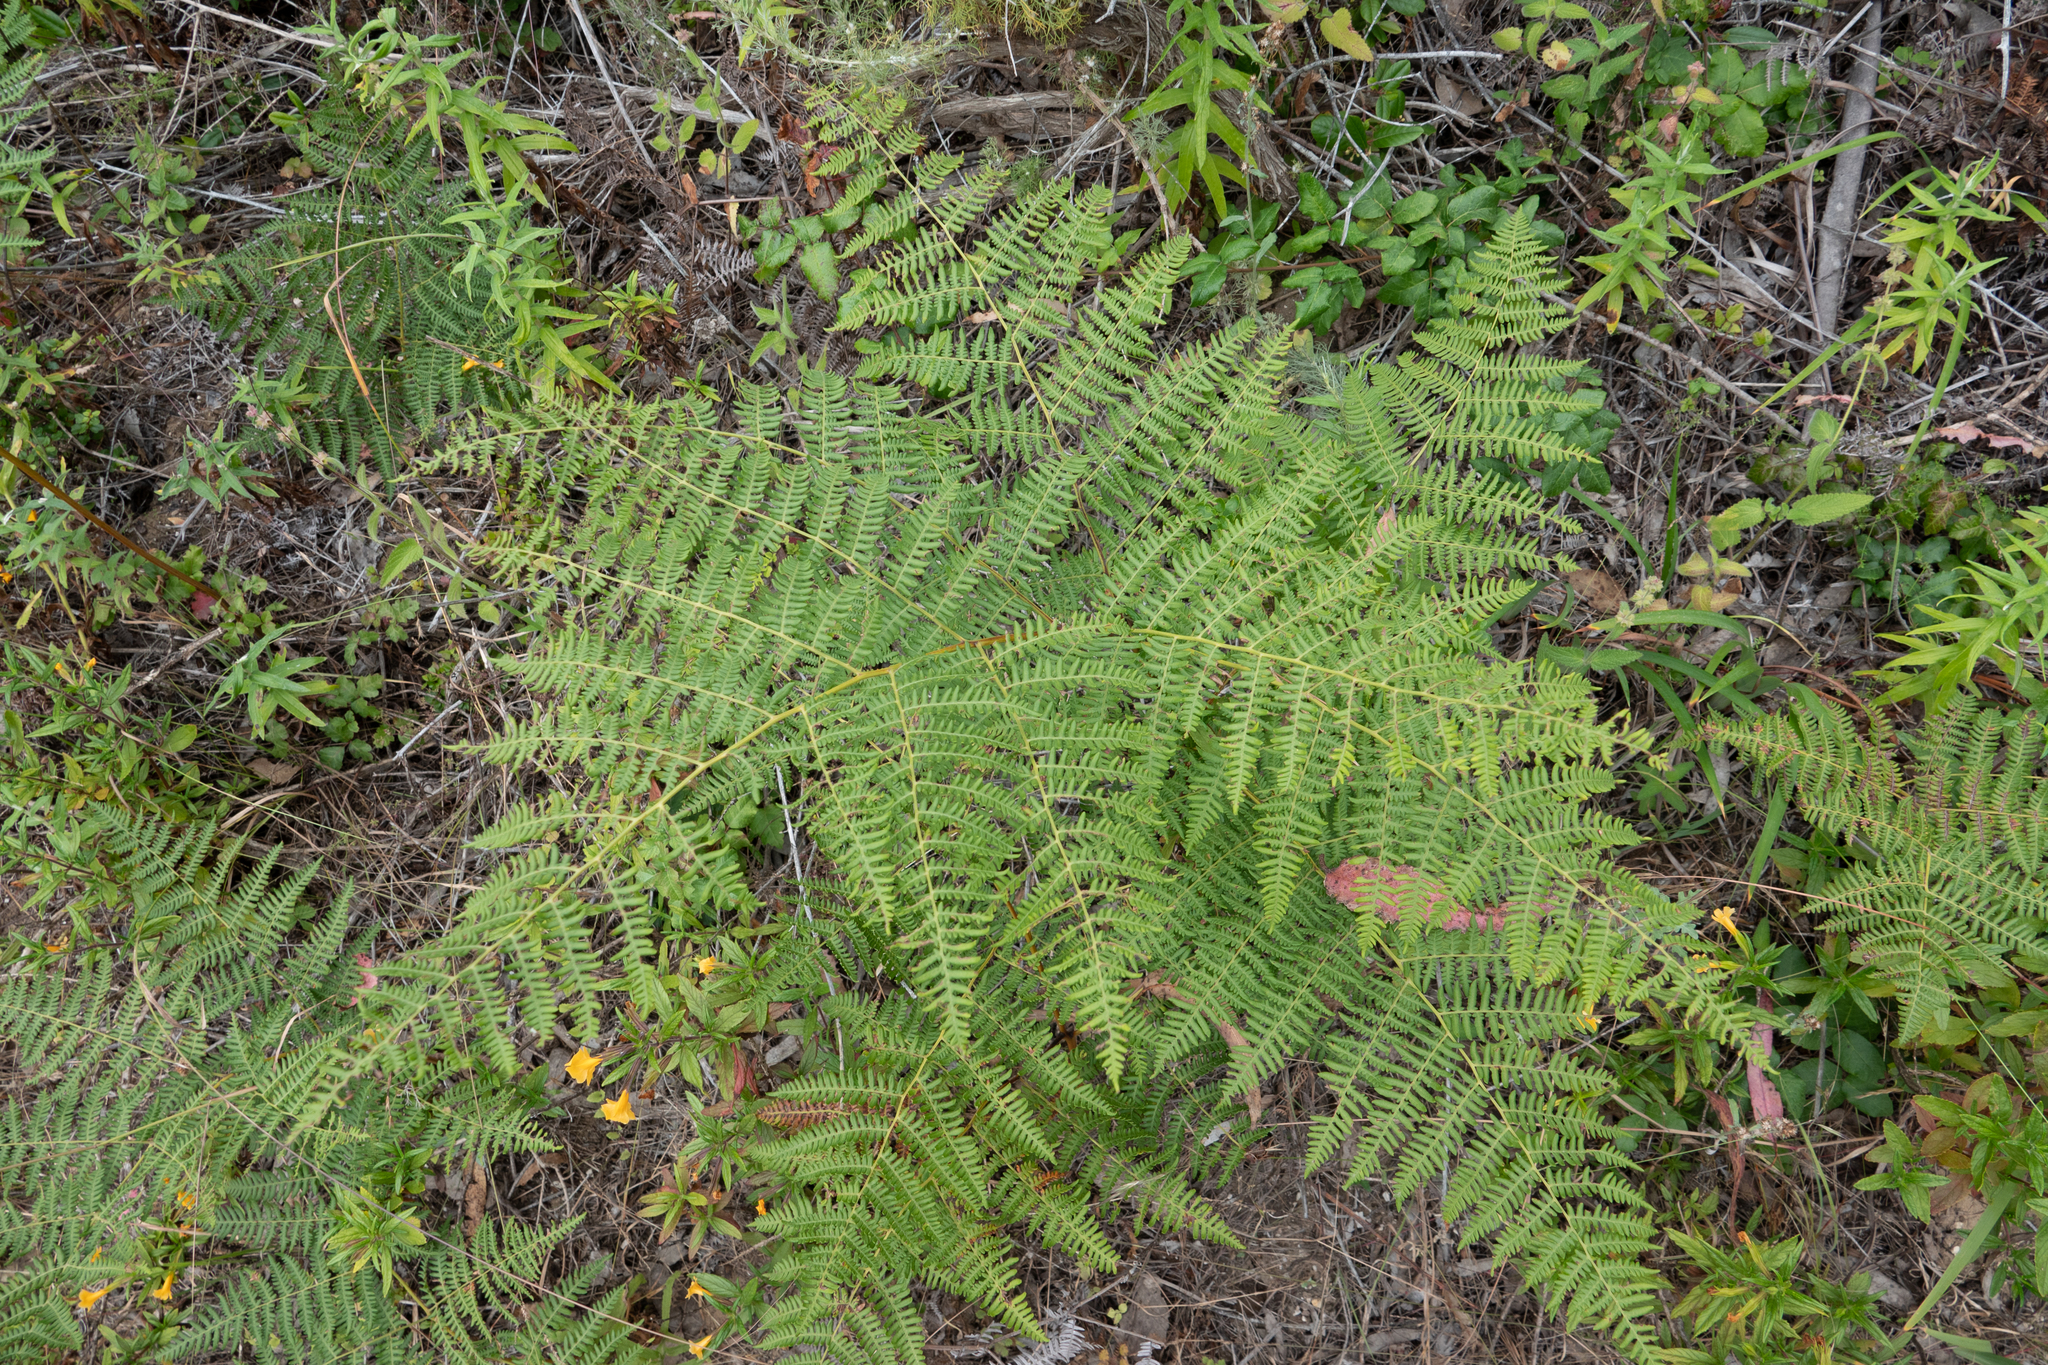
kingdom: Plantae
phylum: Tracheophyta
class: Polypodiopsida
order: Polypodiales
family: Dennstaedtiaceae
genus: Pteridium
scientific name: Pteridium aquilinum
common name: Bracken
